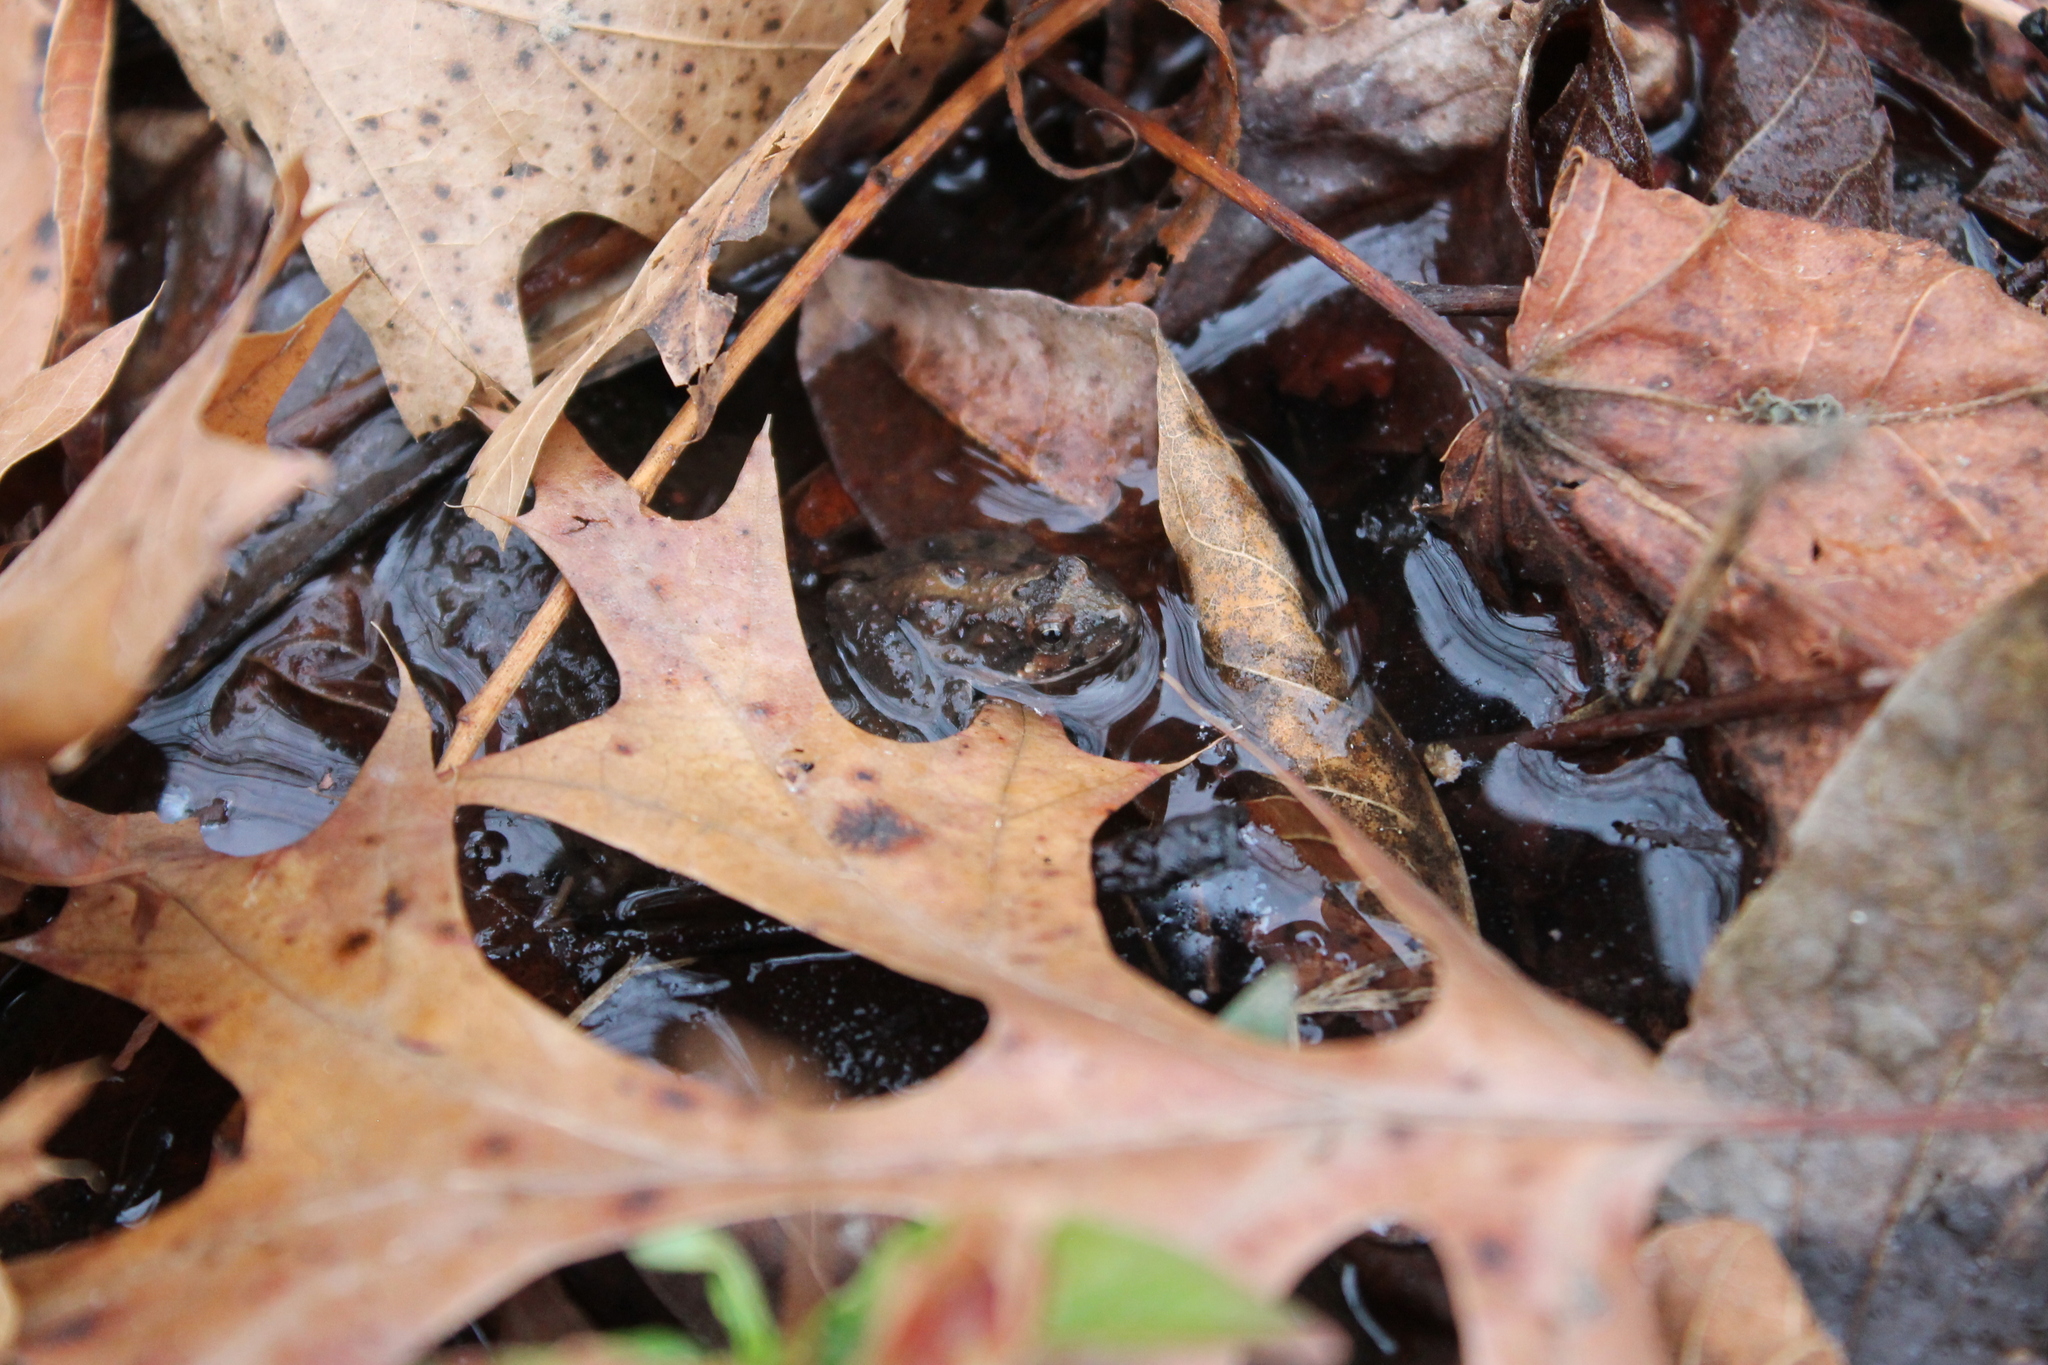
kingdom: Animalia
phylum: Chordata
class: Amphibia
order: Anura
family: Hylidae
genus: Acris
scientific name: Acris crepitans
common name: Northern cricket frog
